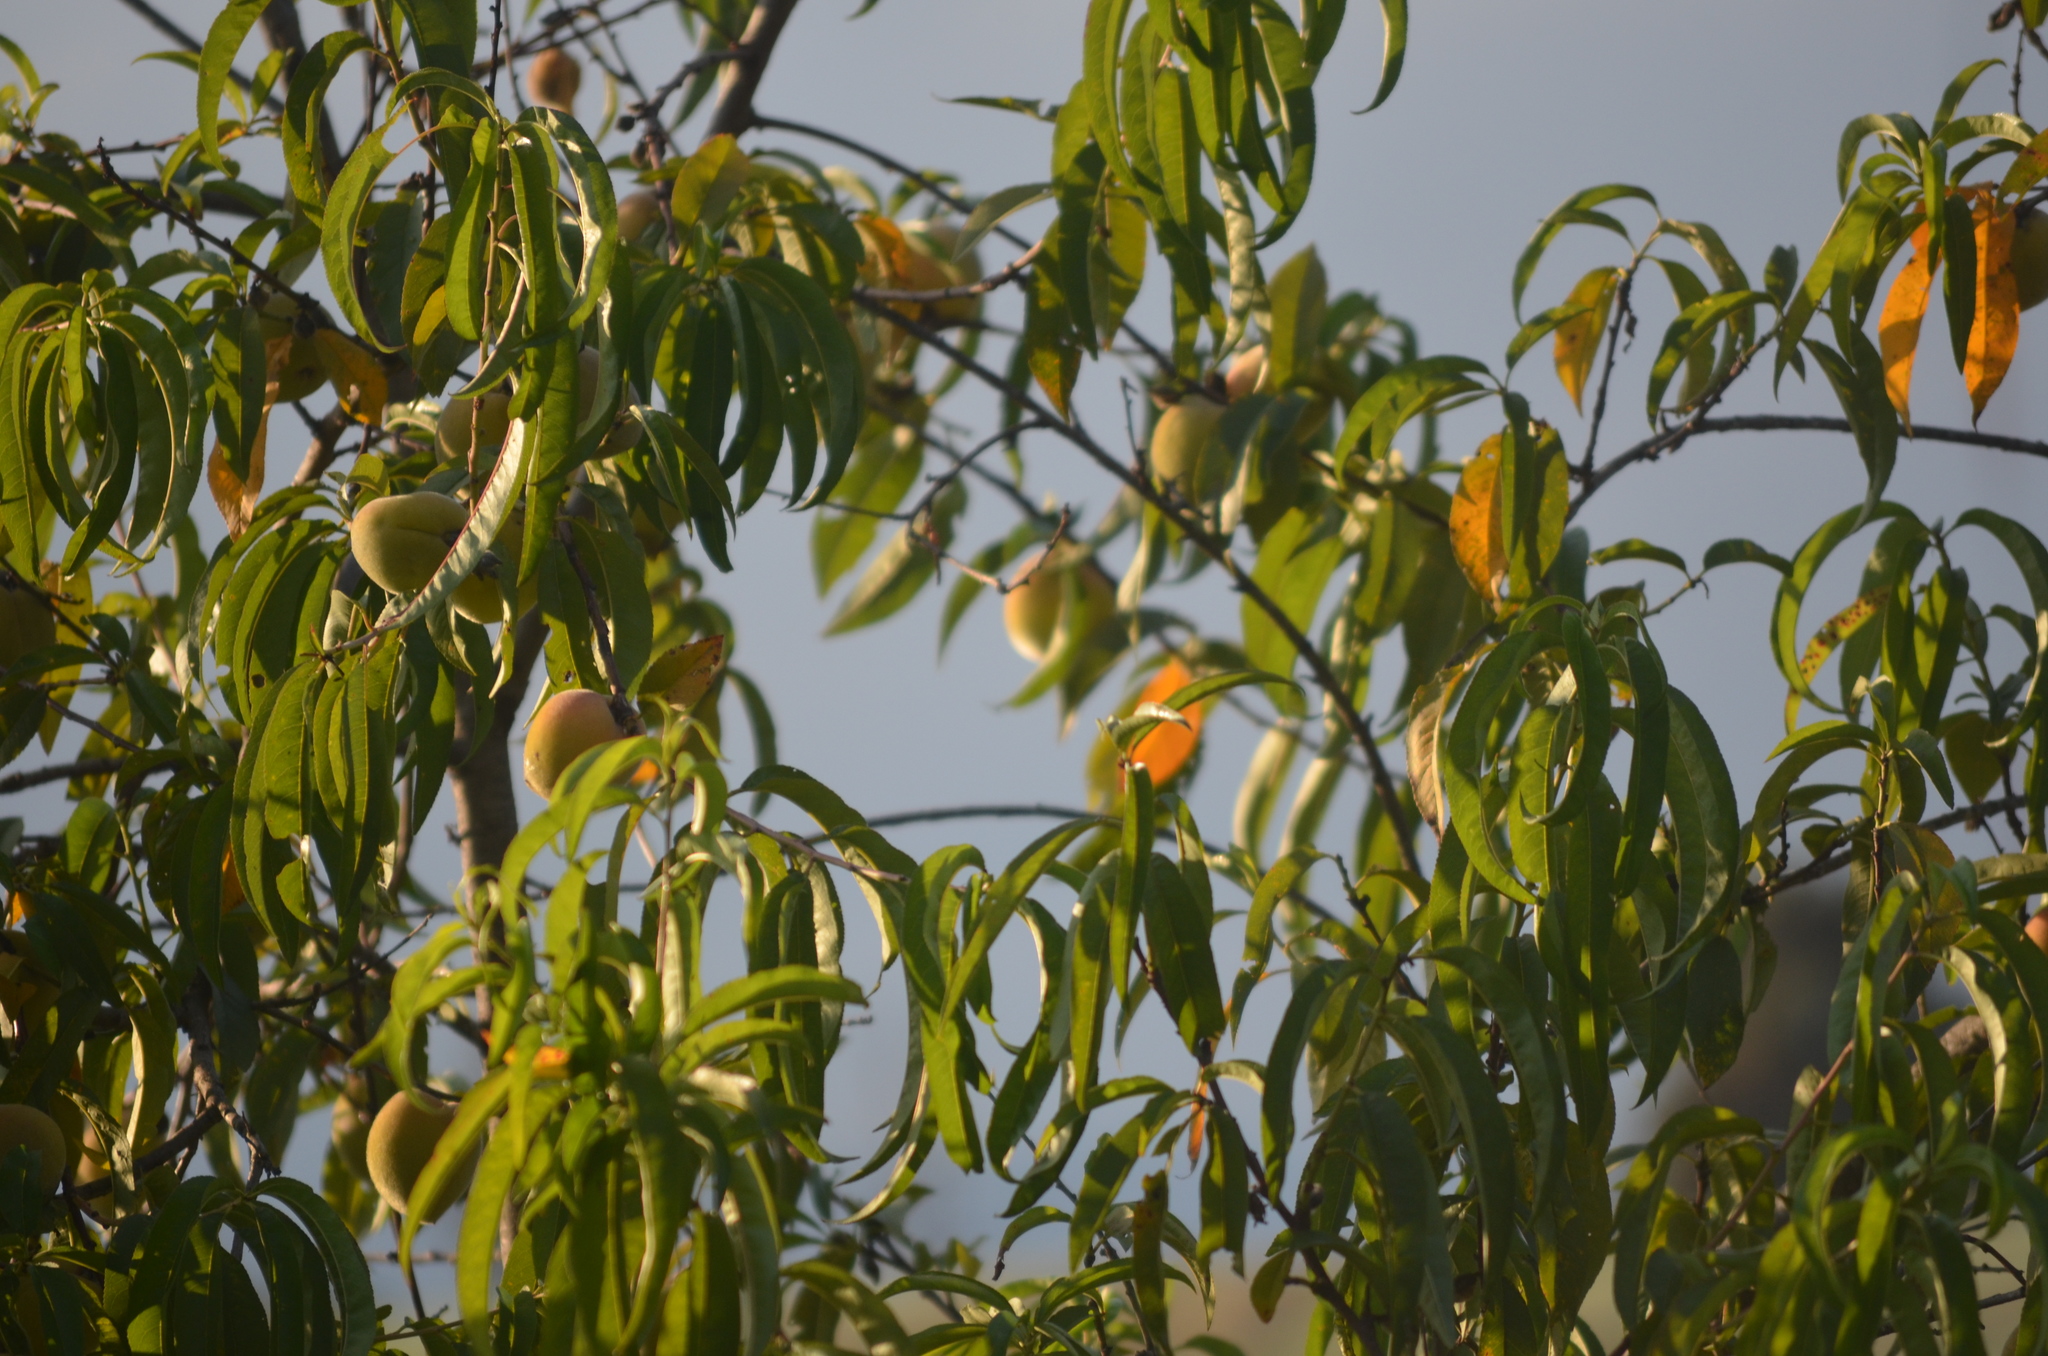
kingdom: Plantae
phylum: Tracheophyta
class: Magnoliopsida
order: Rosales
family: Rosaceae
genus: Prunus
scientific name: Prunus persica
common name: Peach
